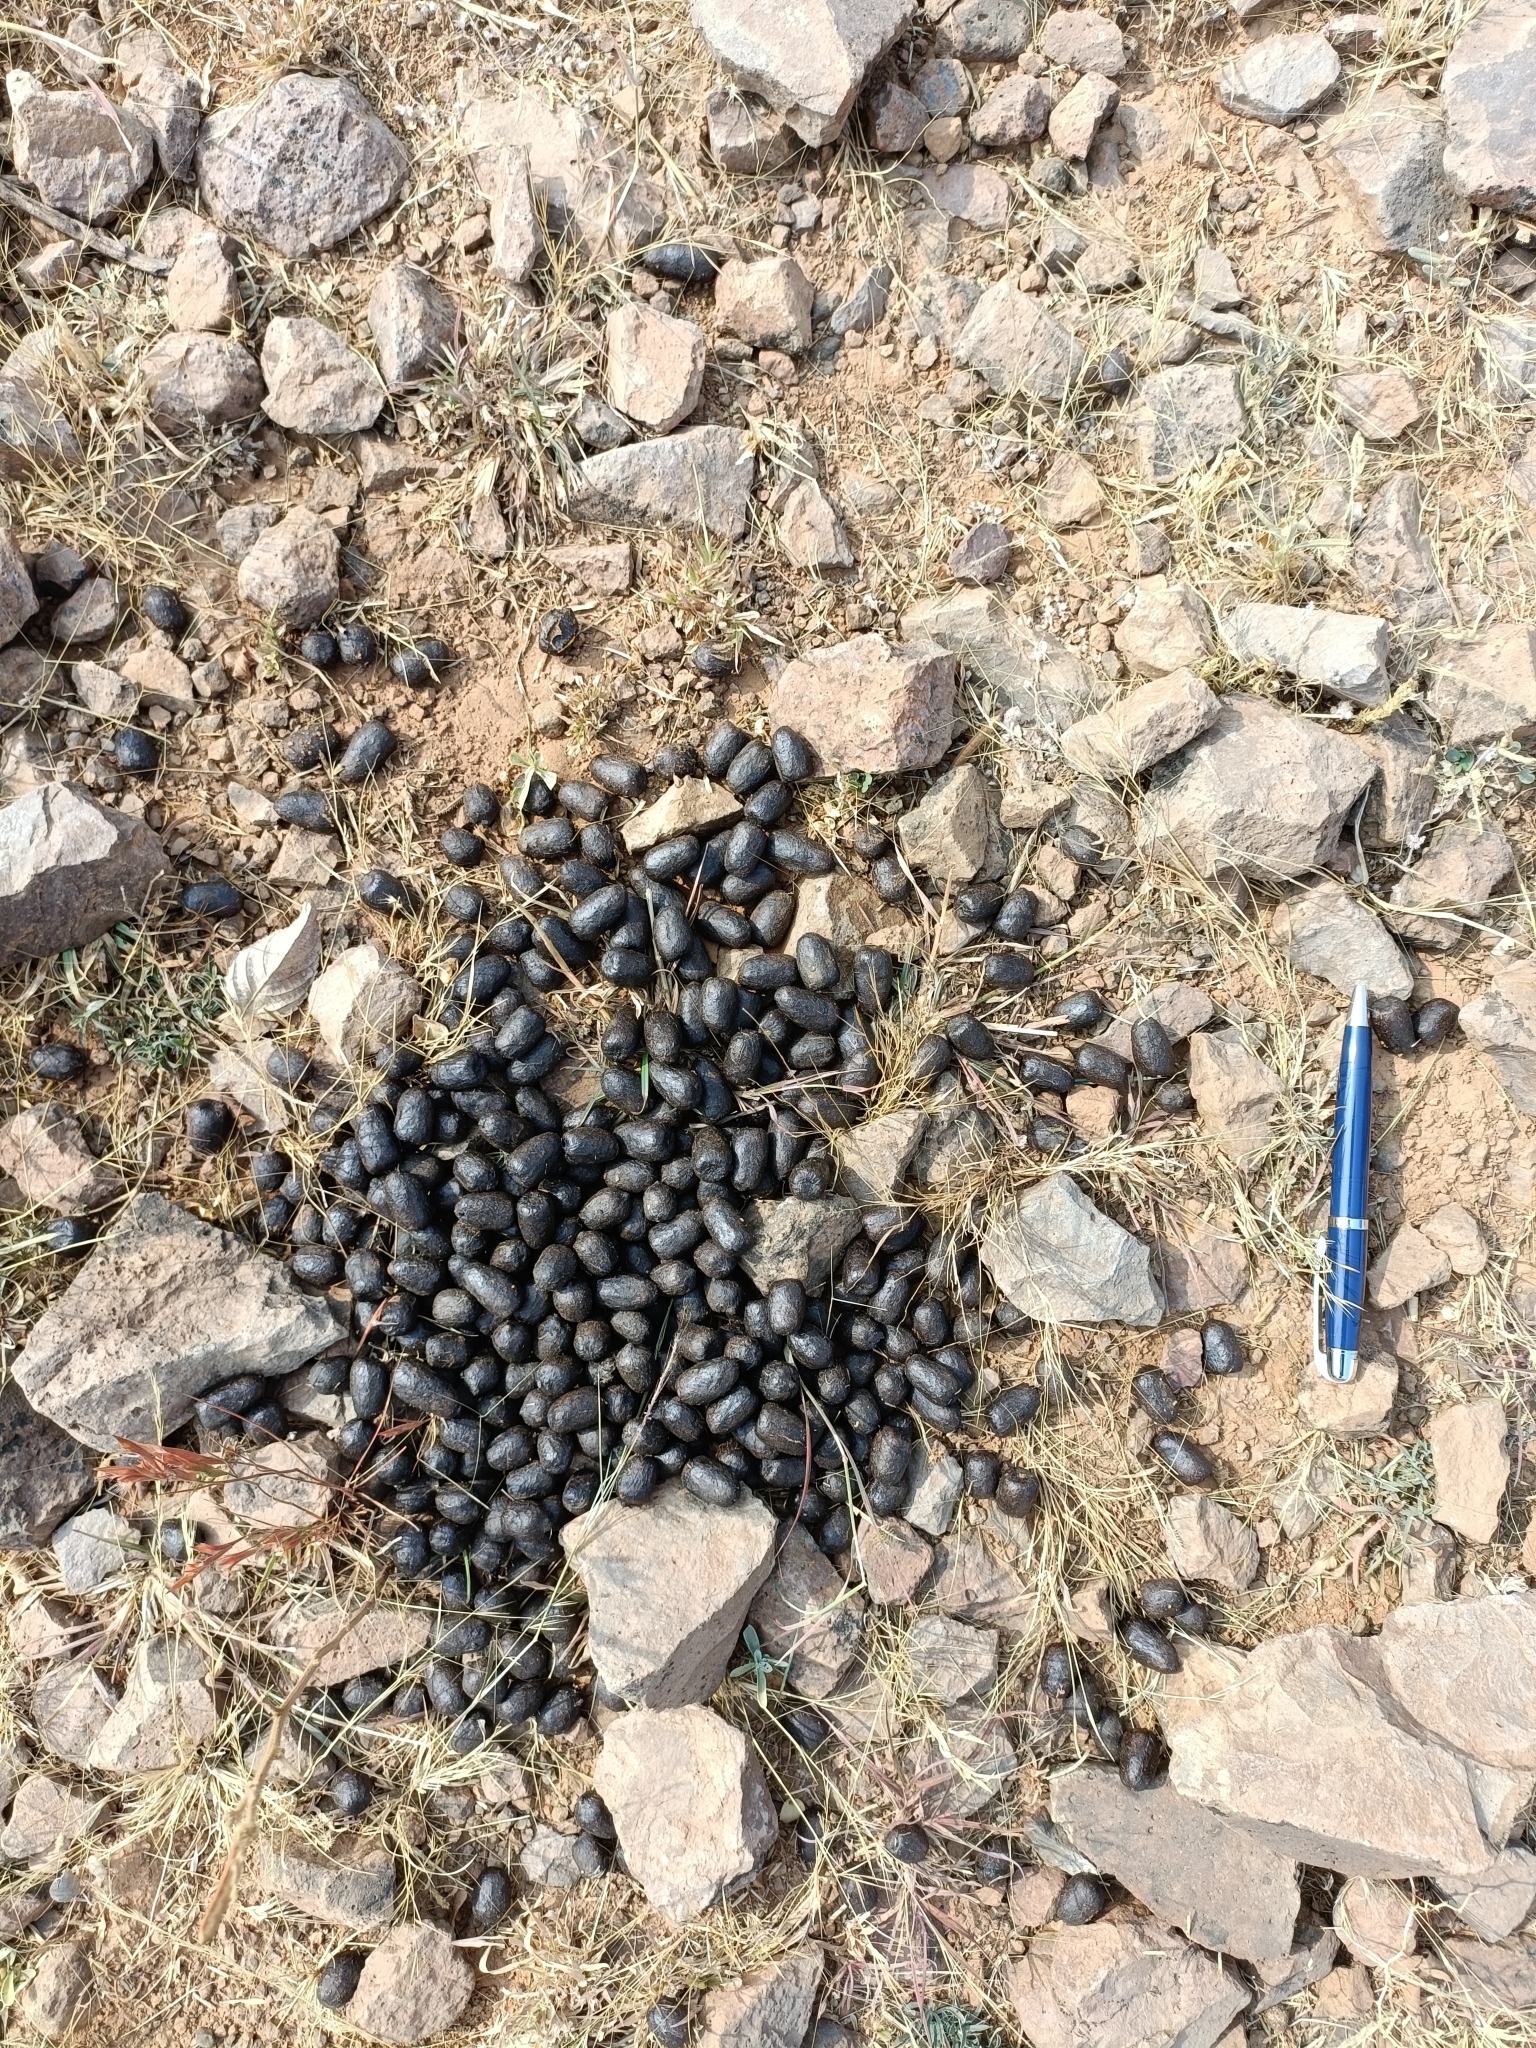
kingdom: Animalia
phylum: Chordata
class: Mammalia
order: Artiodactyla
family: Bovidae
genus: Boselaphus
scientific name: Boselaphus tragocamelus
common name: Nilgai
